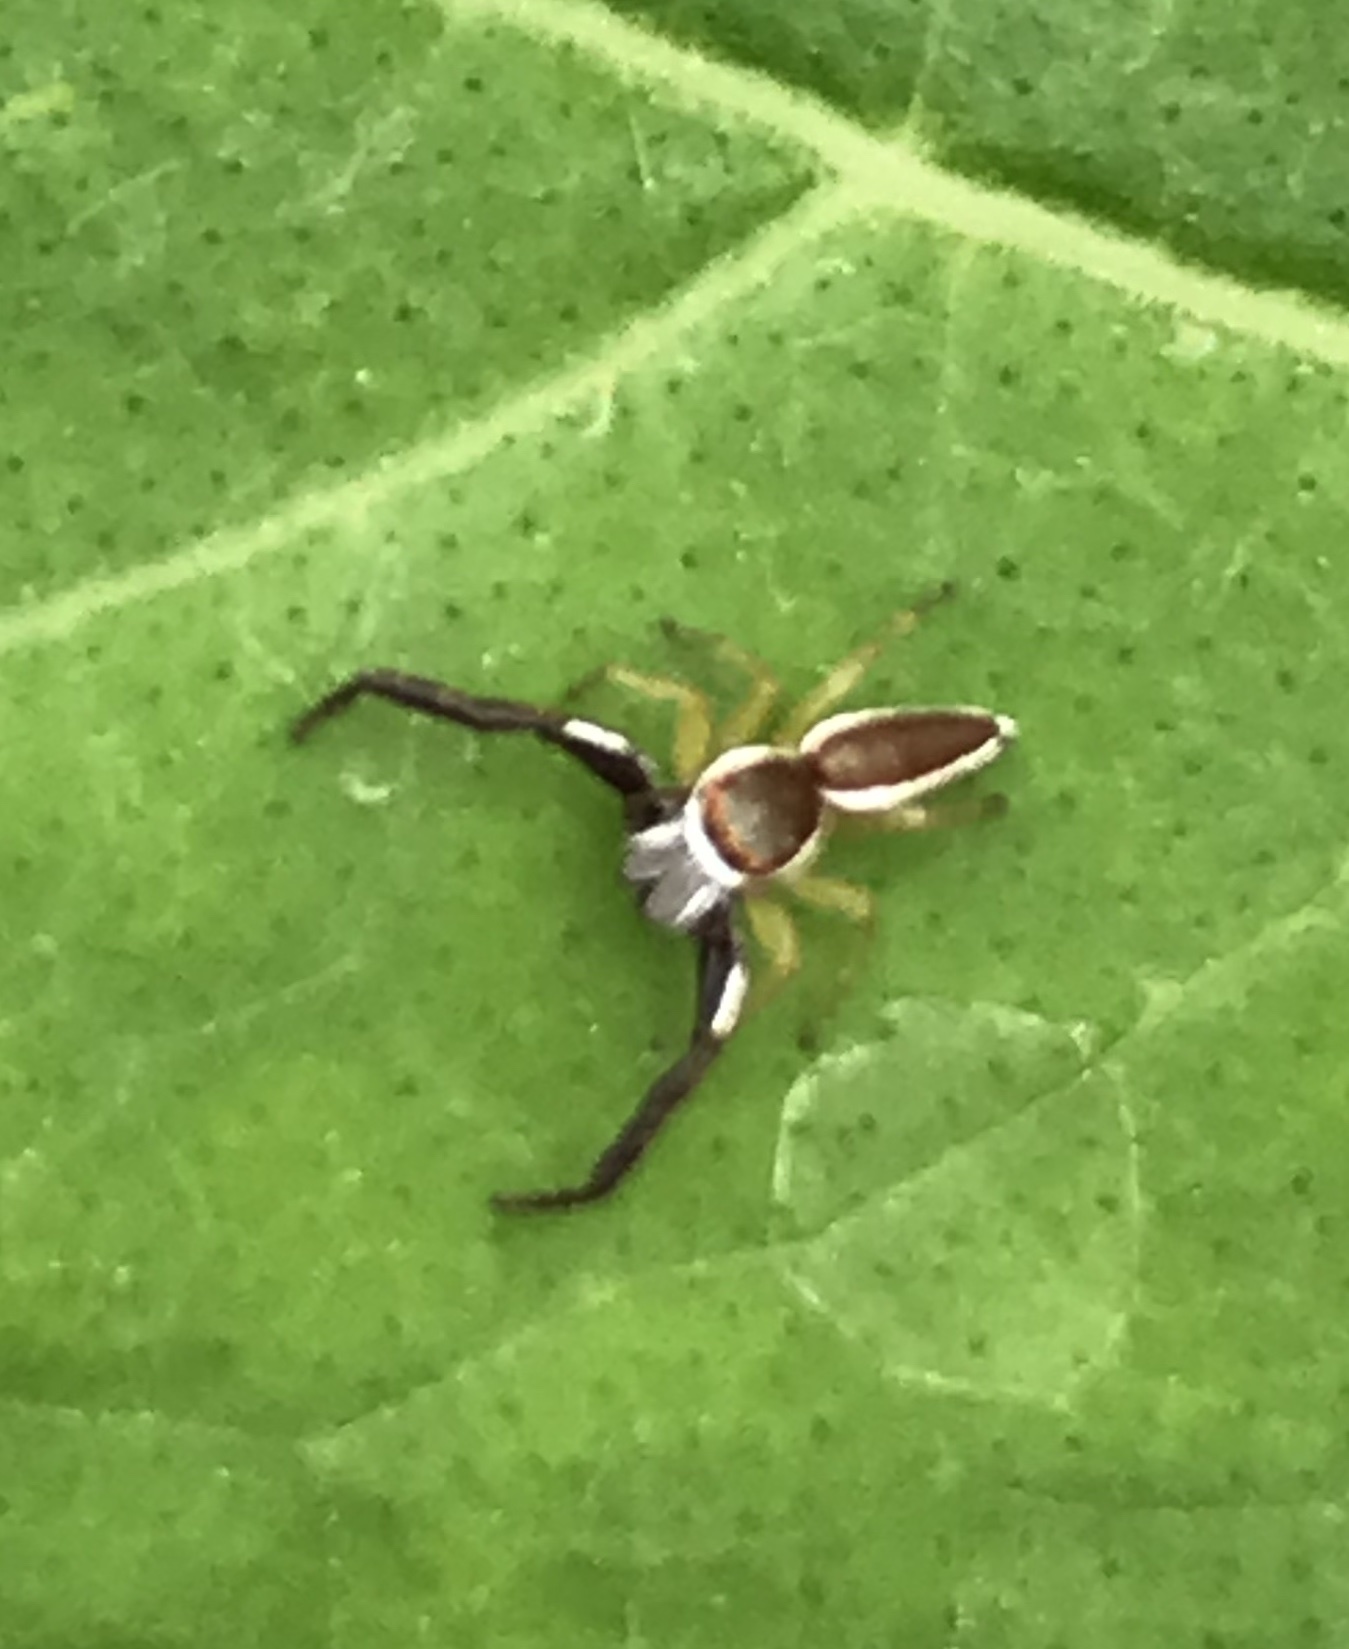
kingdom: Animalia
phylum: Arthropoda
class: Arachnida
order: Araneae
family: Salticidae
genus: Hentzia
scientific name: Hentzia palmarum
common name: Common hentz jumping spider
